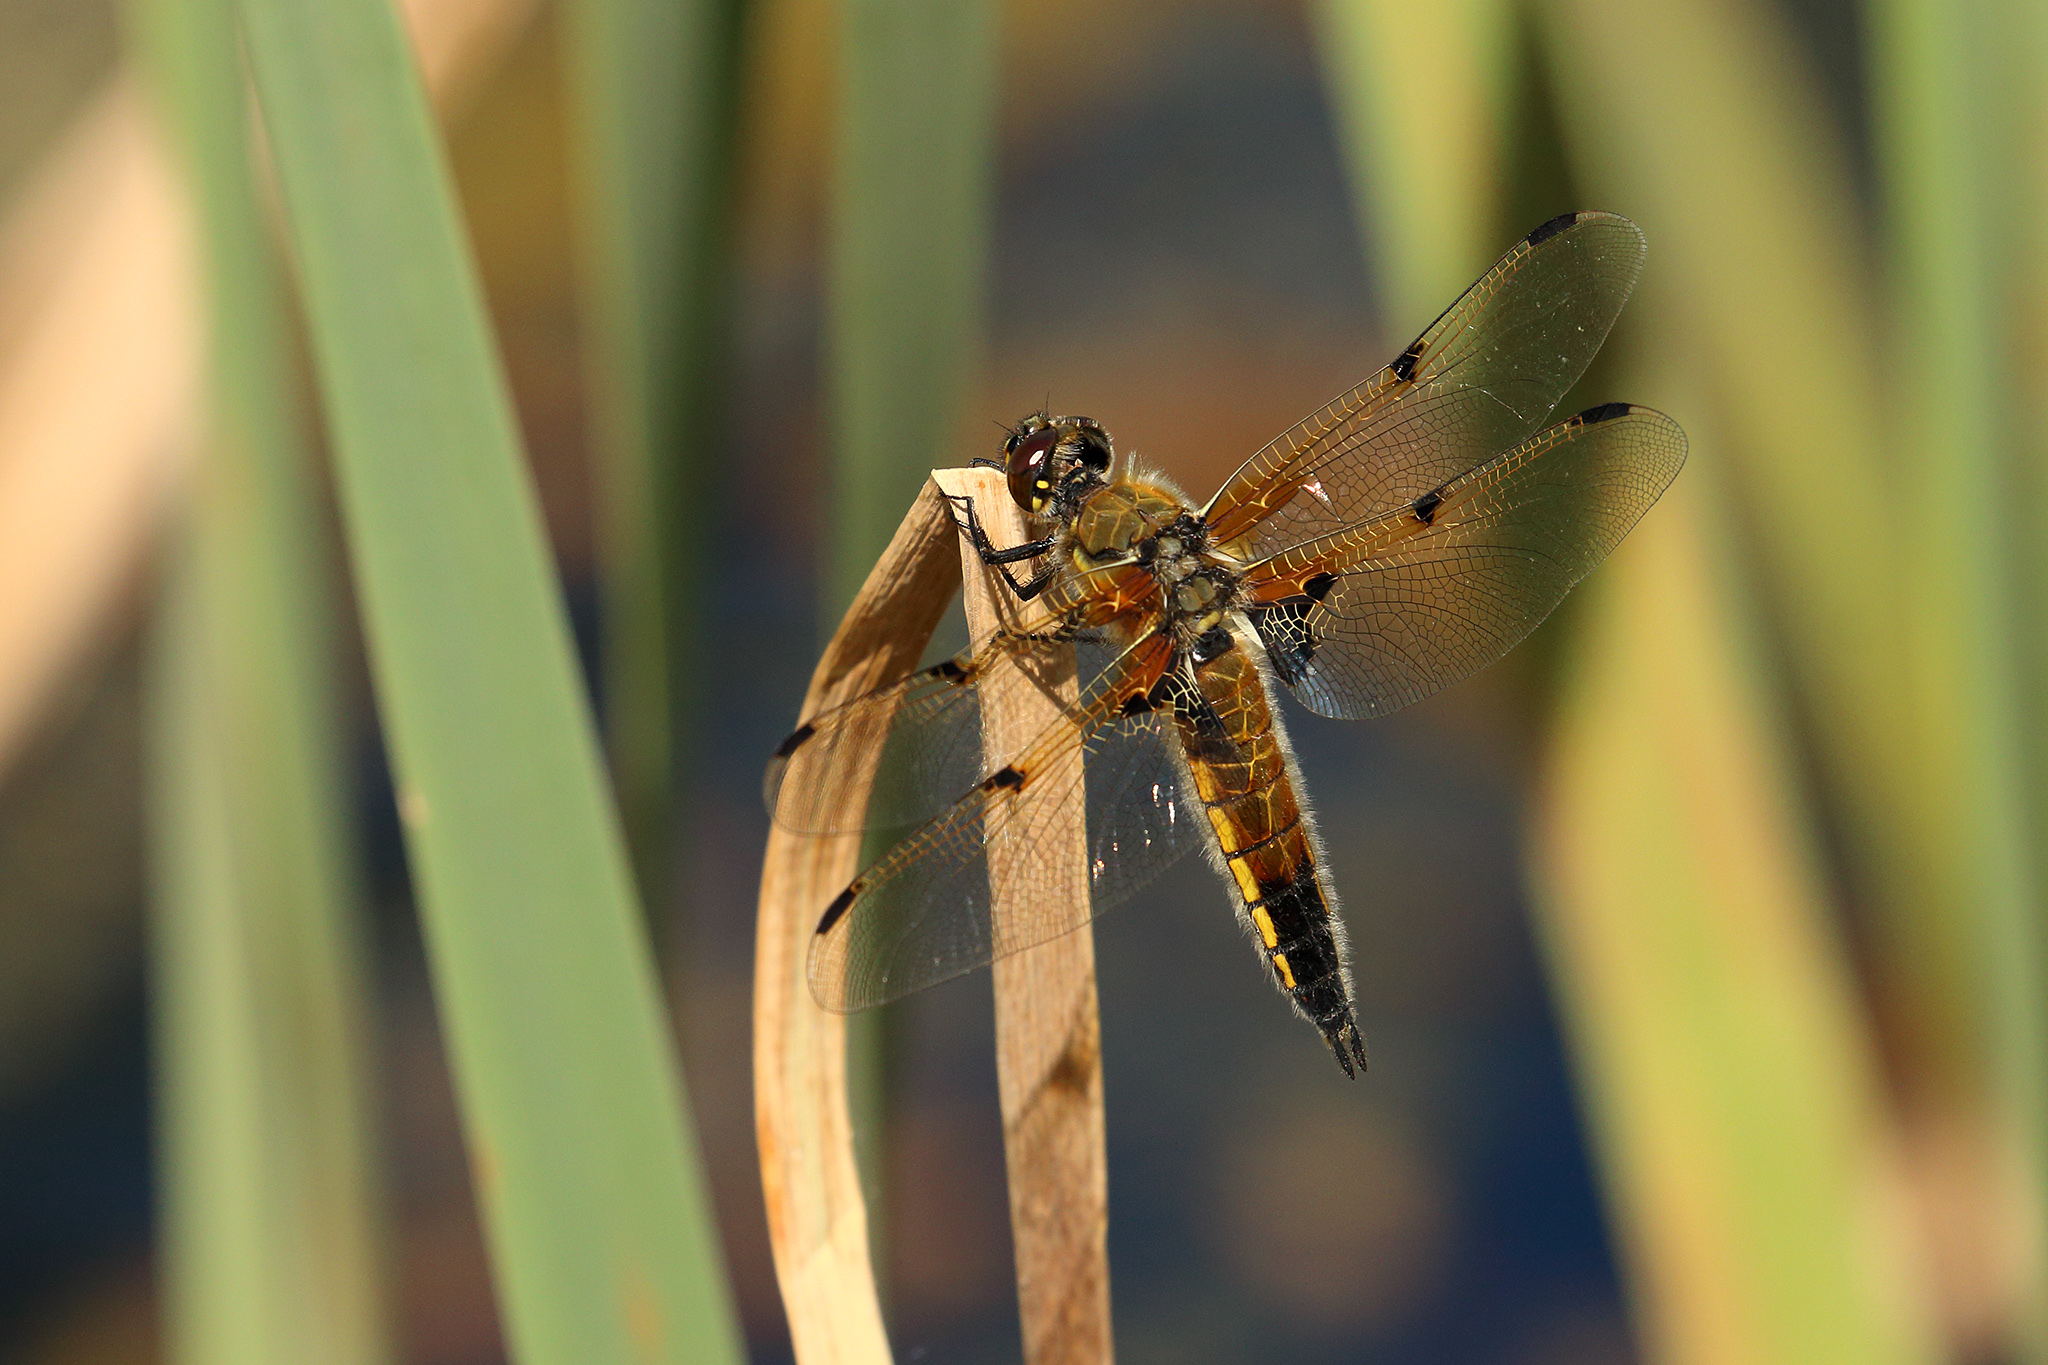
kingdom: Animalia
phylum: Arthropoda
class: Insecta
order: Odonata
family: Libellulidae
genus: Libellula
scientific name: Libellula quadrimaculata
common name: Four-spotted chaser
